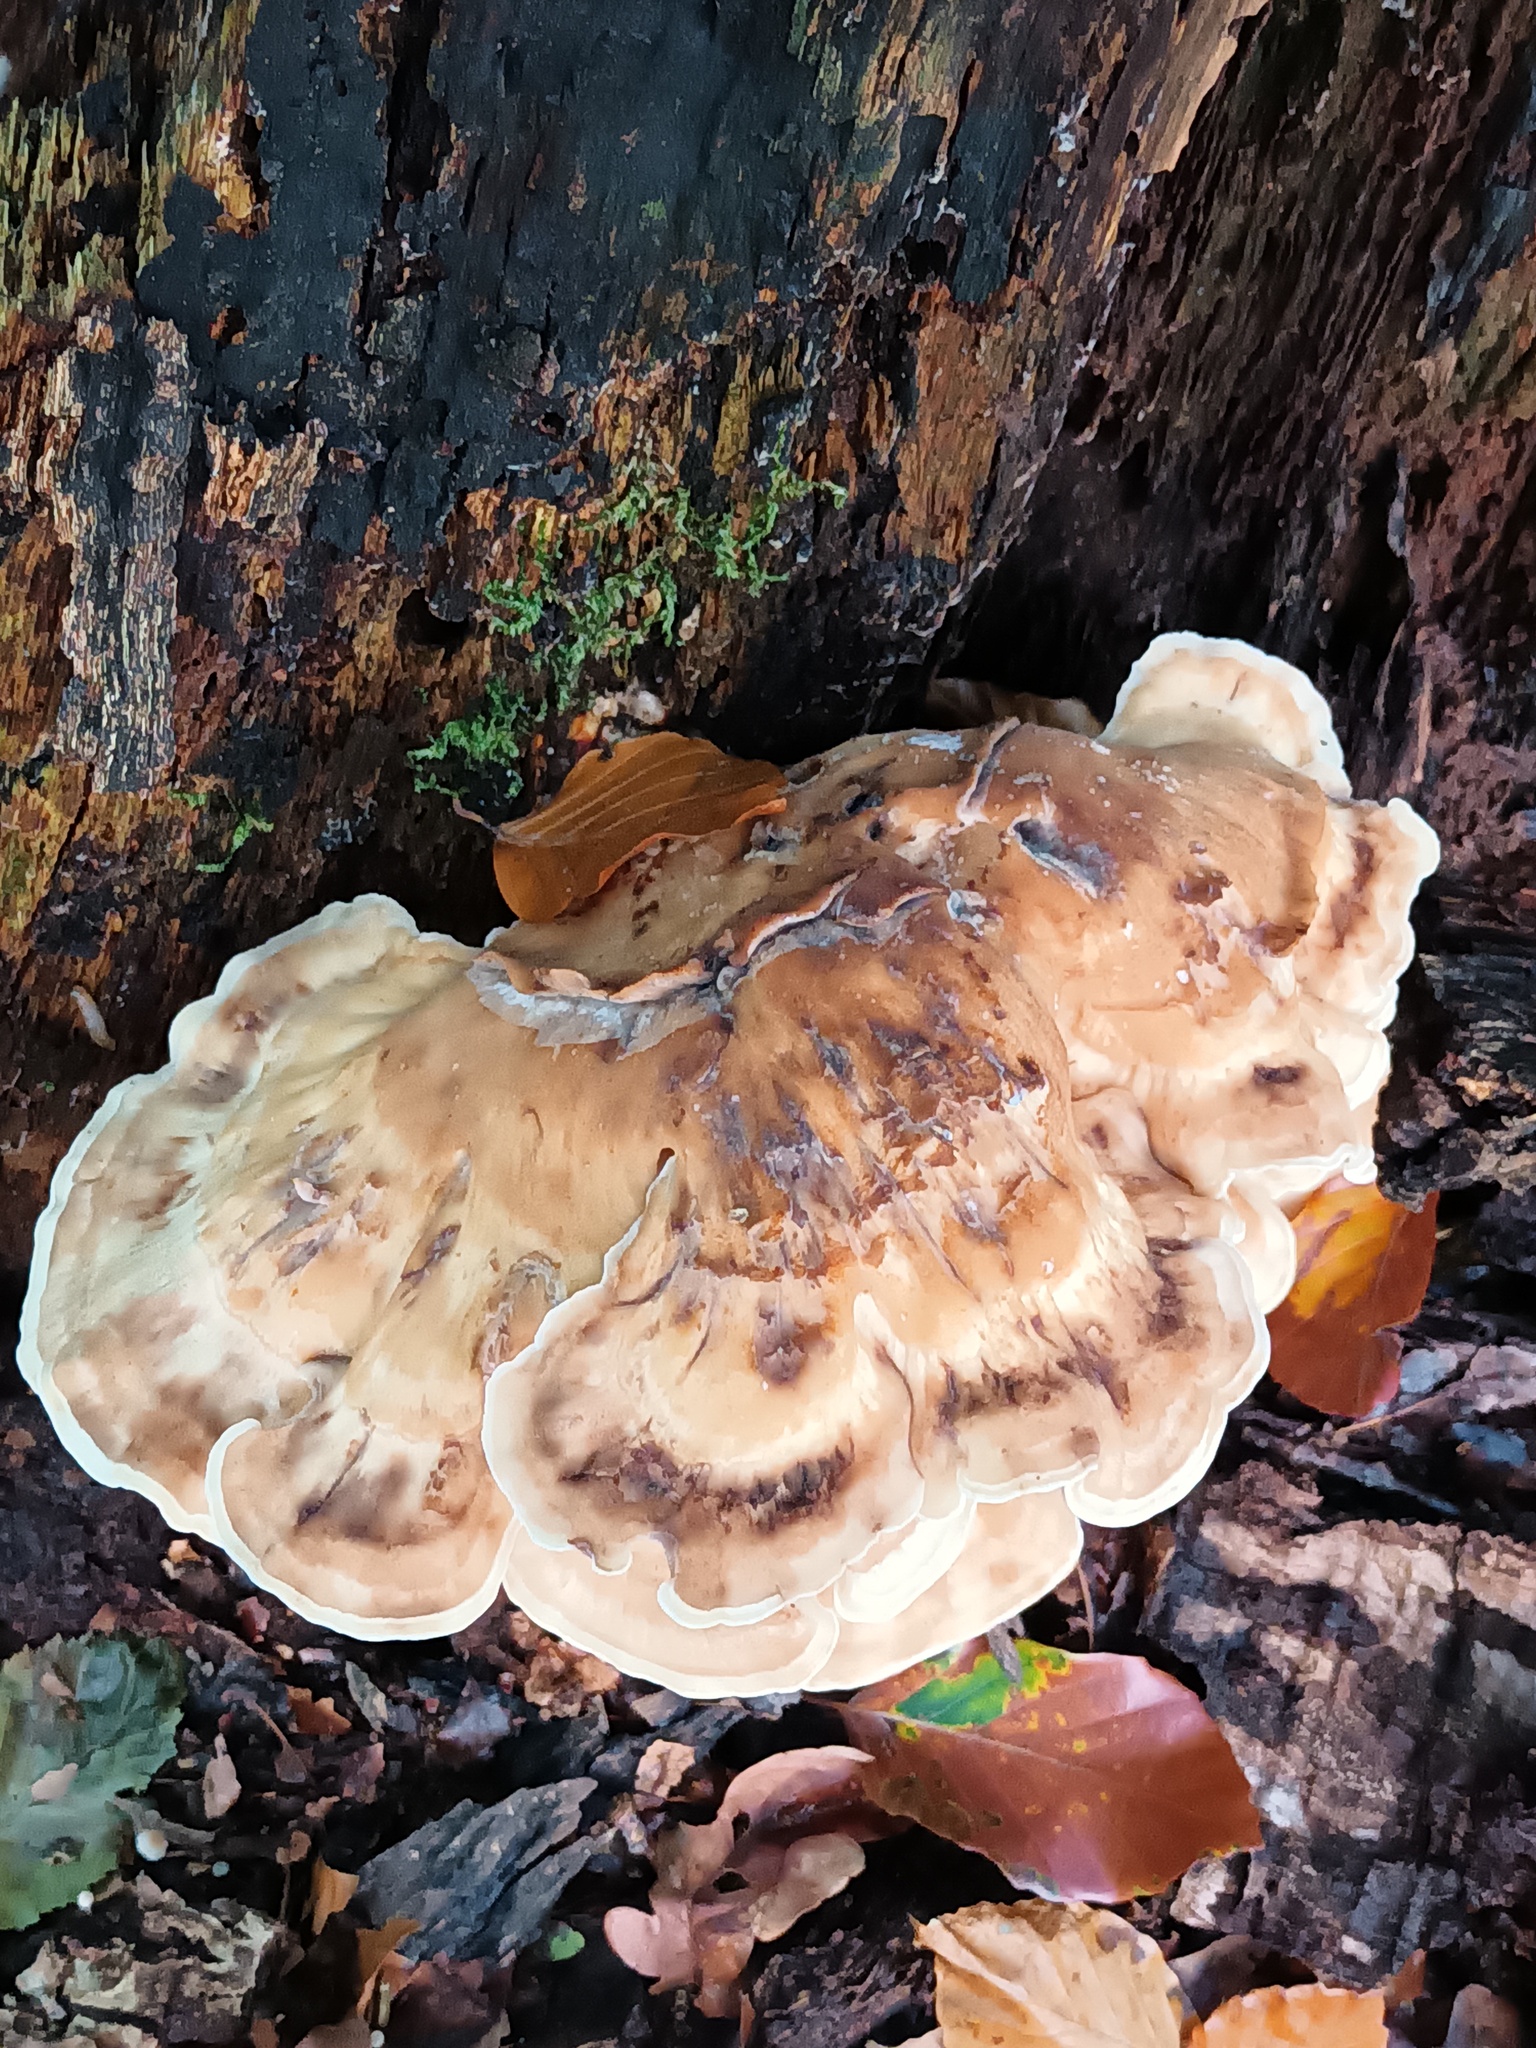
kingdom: Fungi
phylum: Basidiomycota
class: Agaricomycetes
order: Polyporales
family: Meripilaceae
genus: Meripilus
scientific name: Meripilus giganteus
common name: Giant polypore
